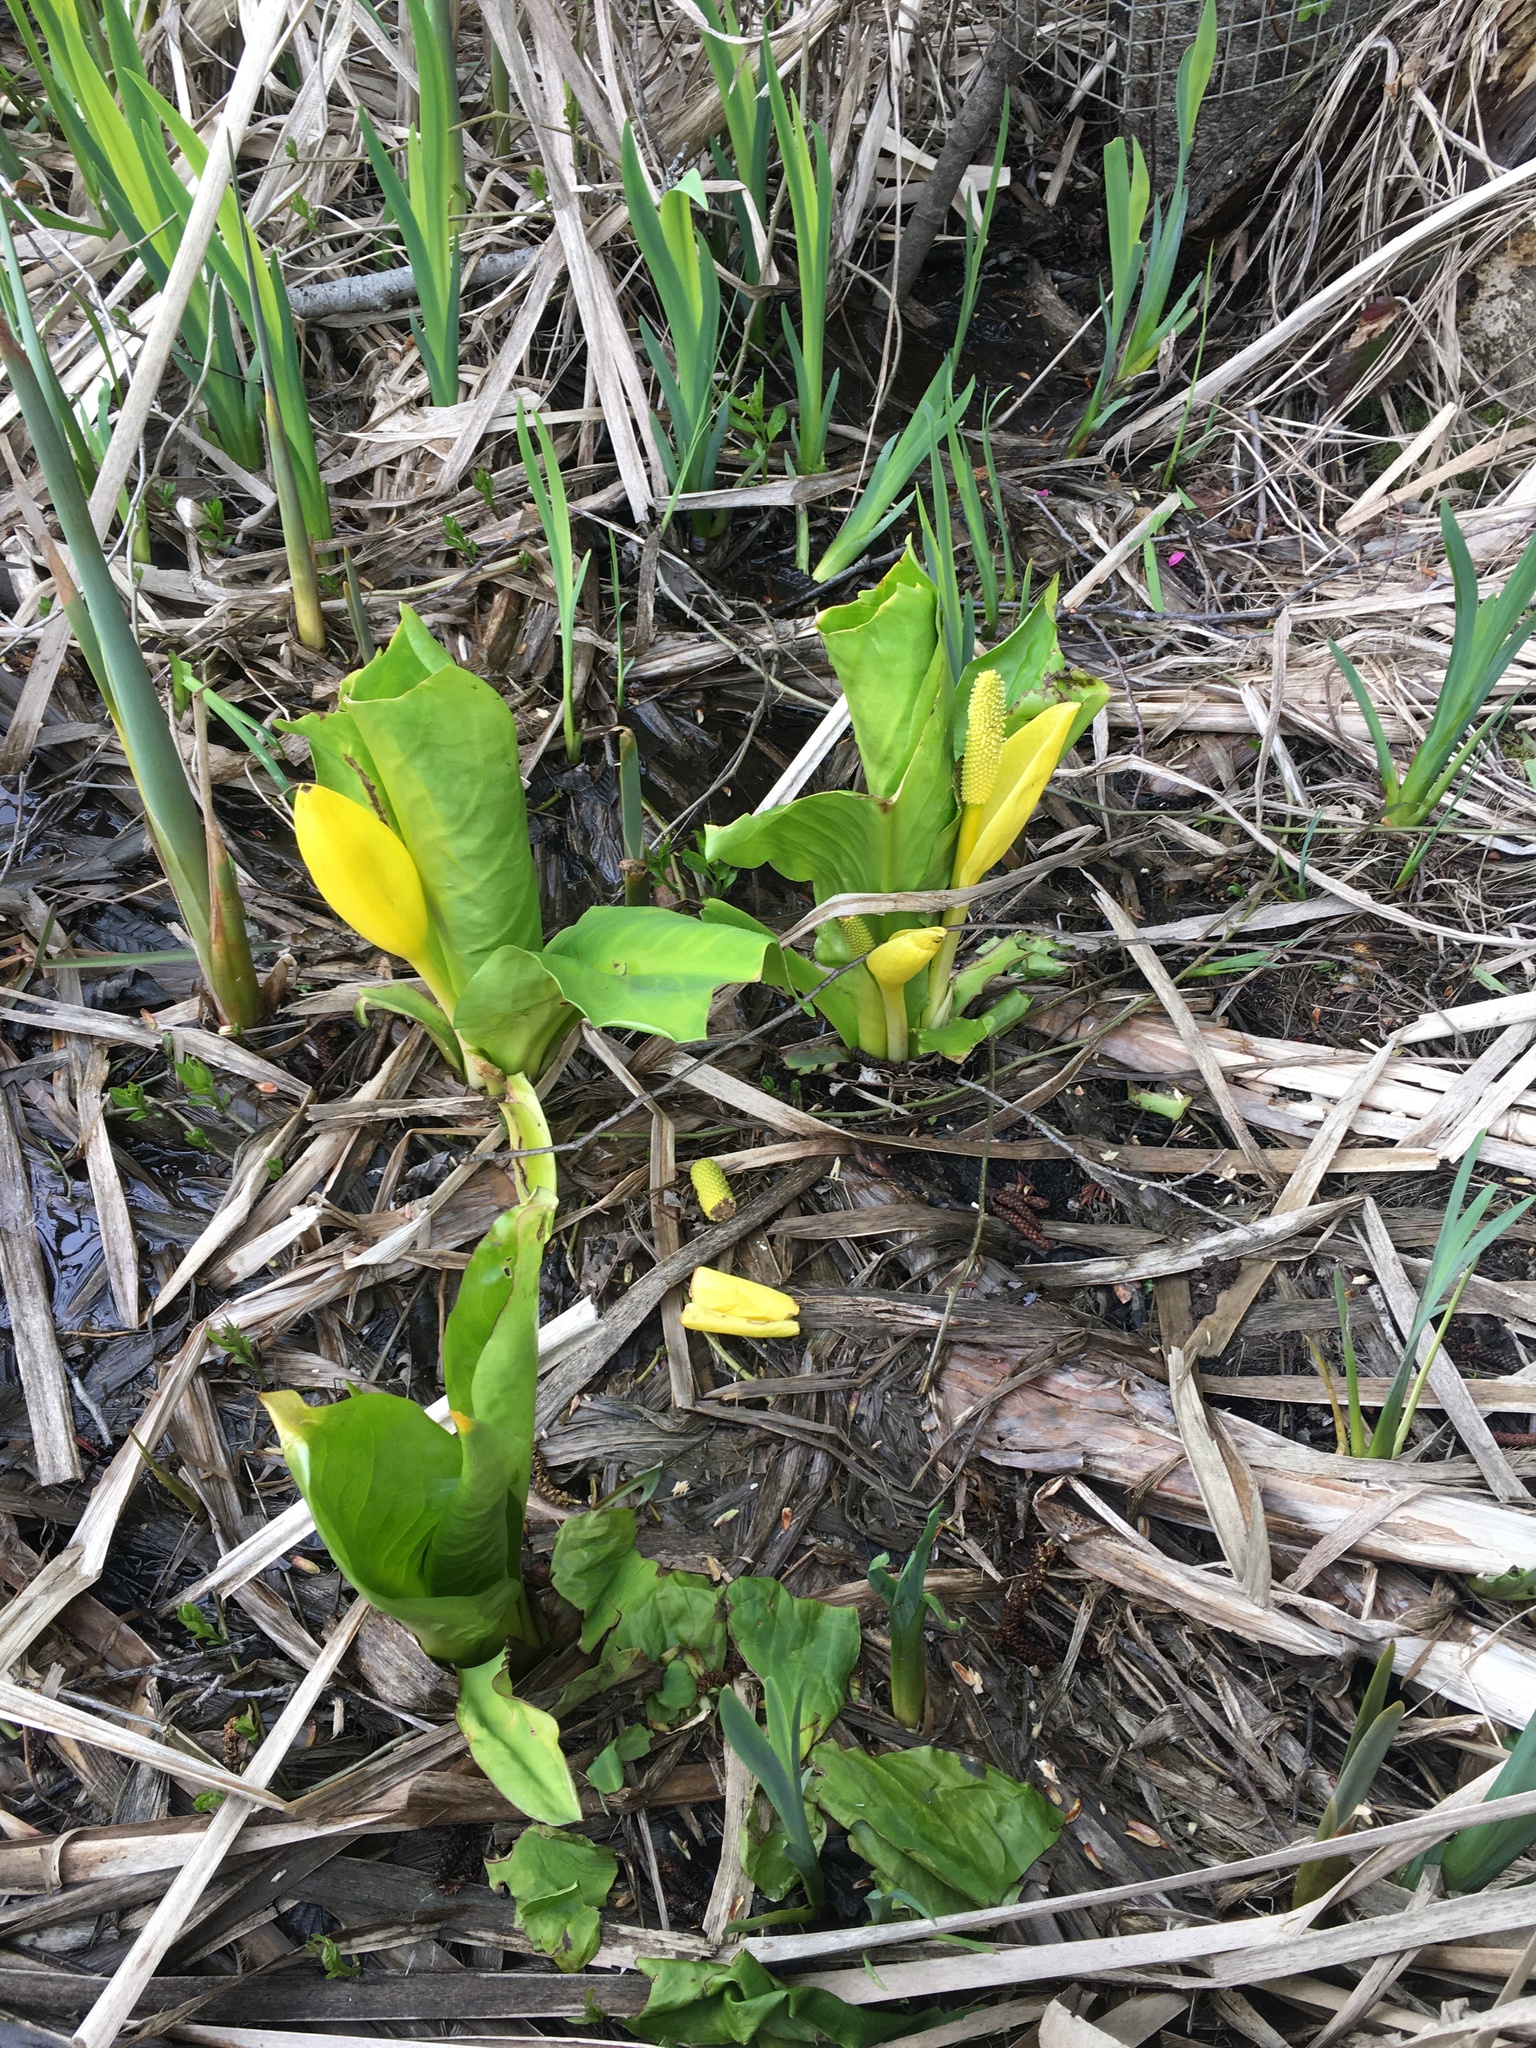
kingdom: Plantae
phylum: Tracheophyta
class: Liliopsida
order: Alismatales
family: Araceae
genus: Lysichiton
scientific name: Lysichiton americanus
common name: American skunk cabbage
